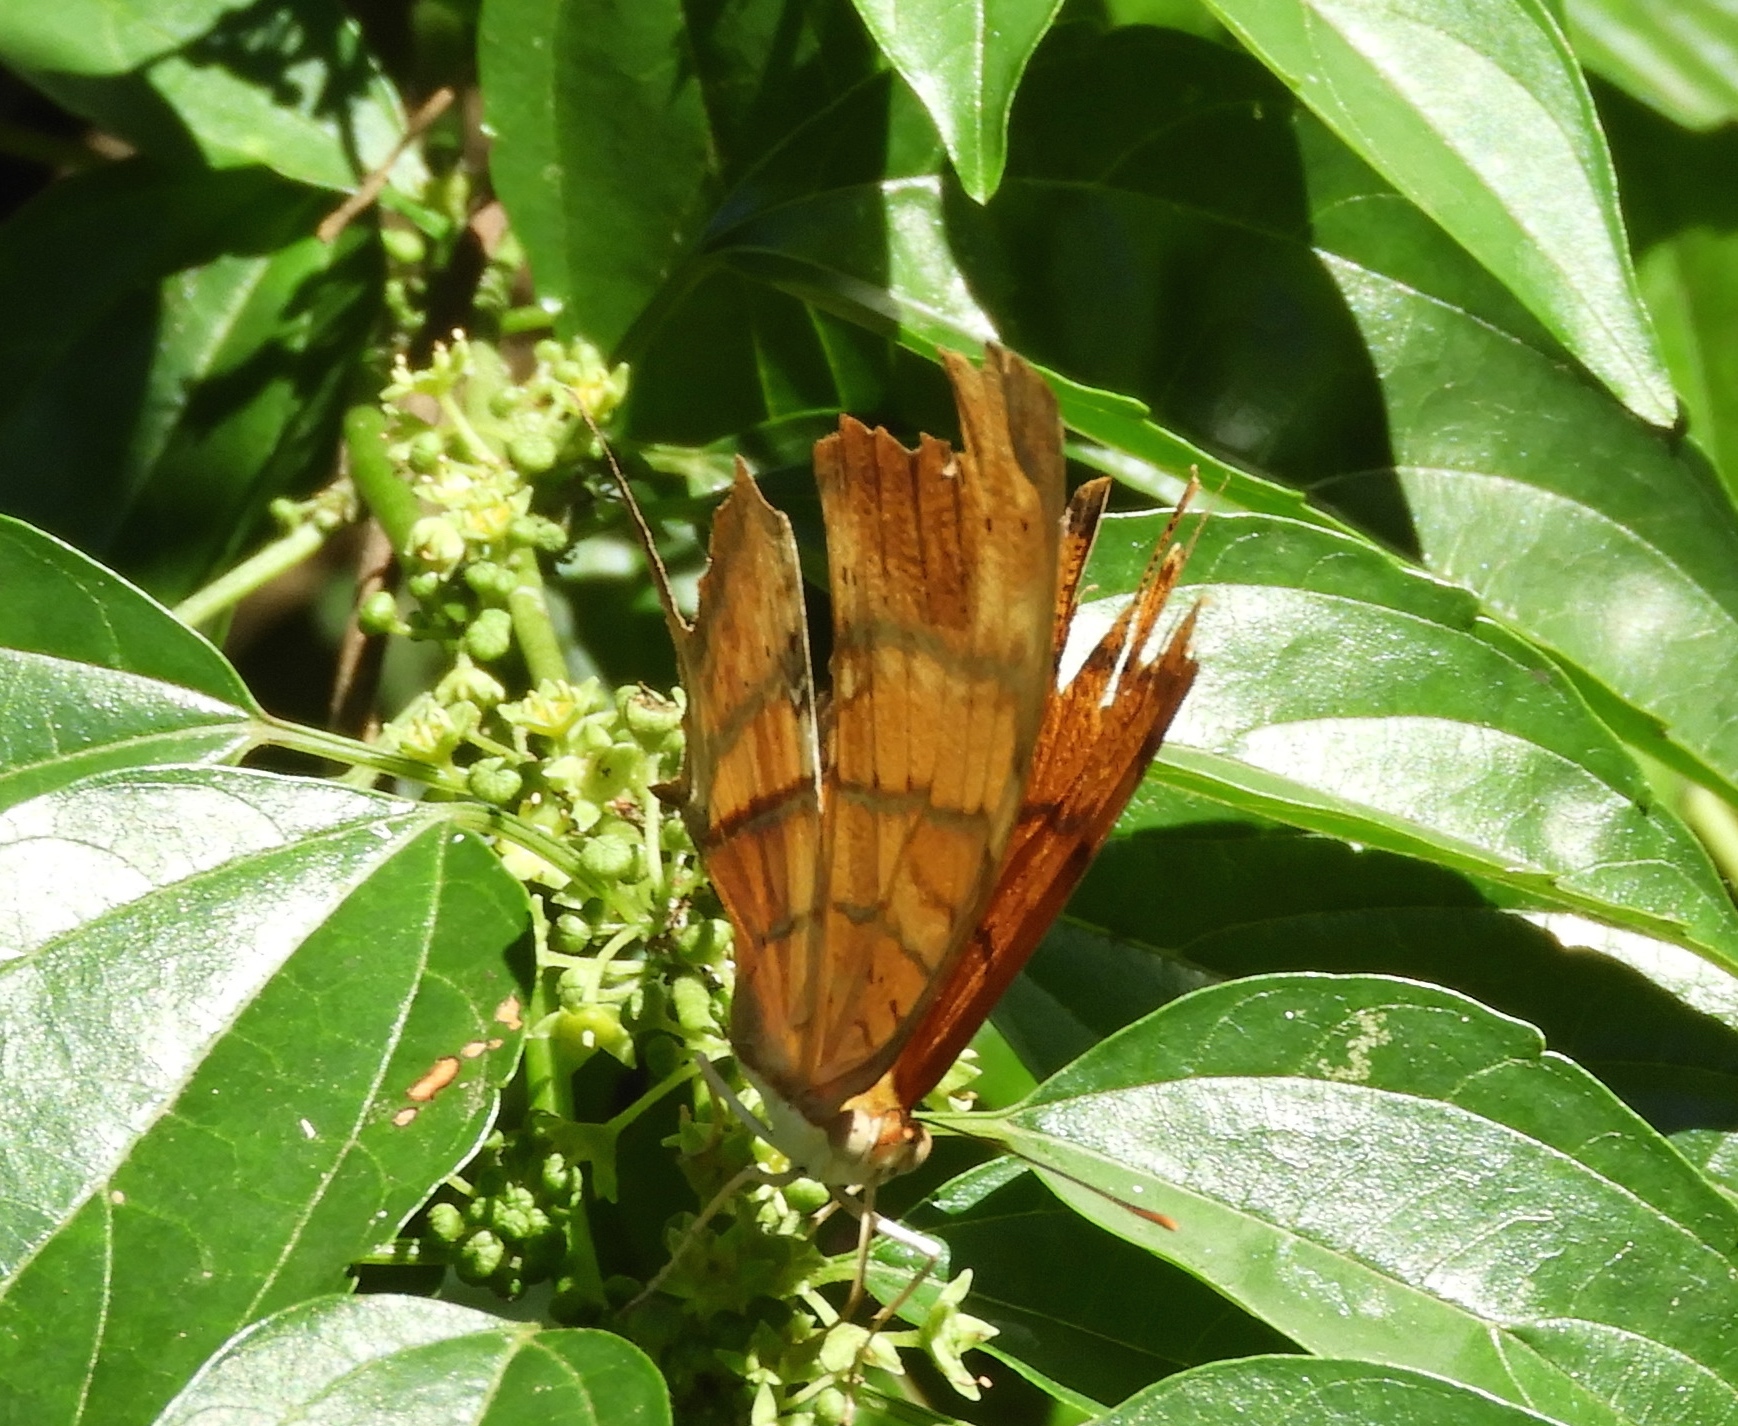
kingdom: Animalia
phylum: Arthropoda
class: Insecta
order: Lepidoptera
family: Nymphalidae
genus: Marpesia
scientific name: Marpesia petreus
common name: Red dagger wing
